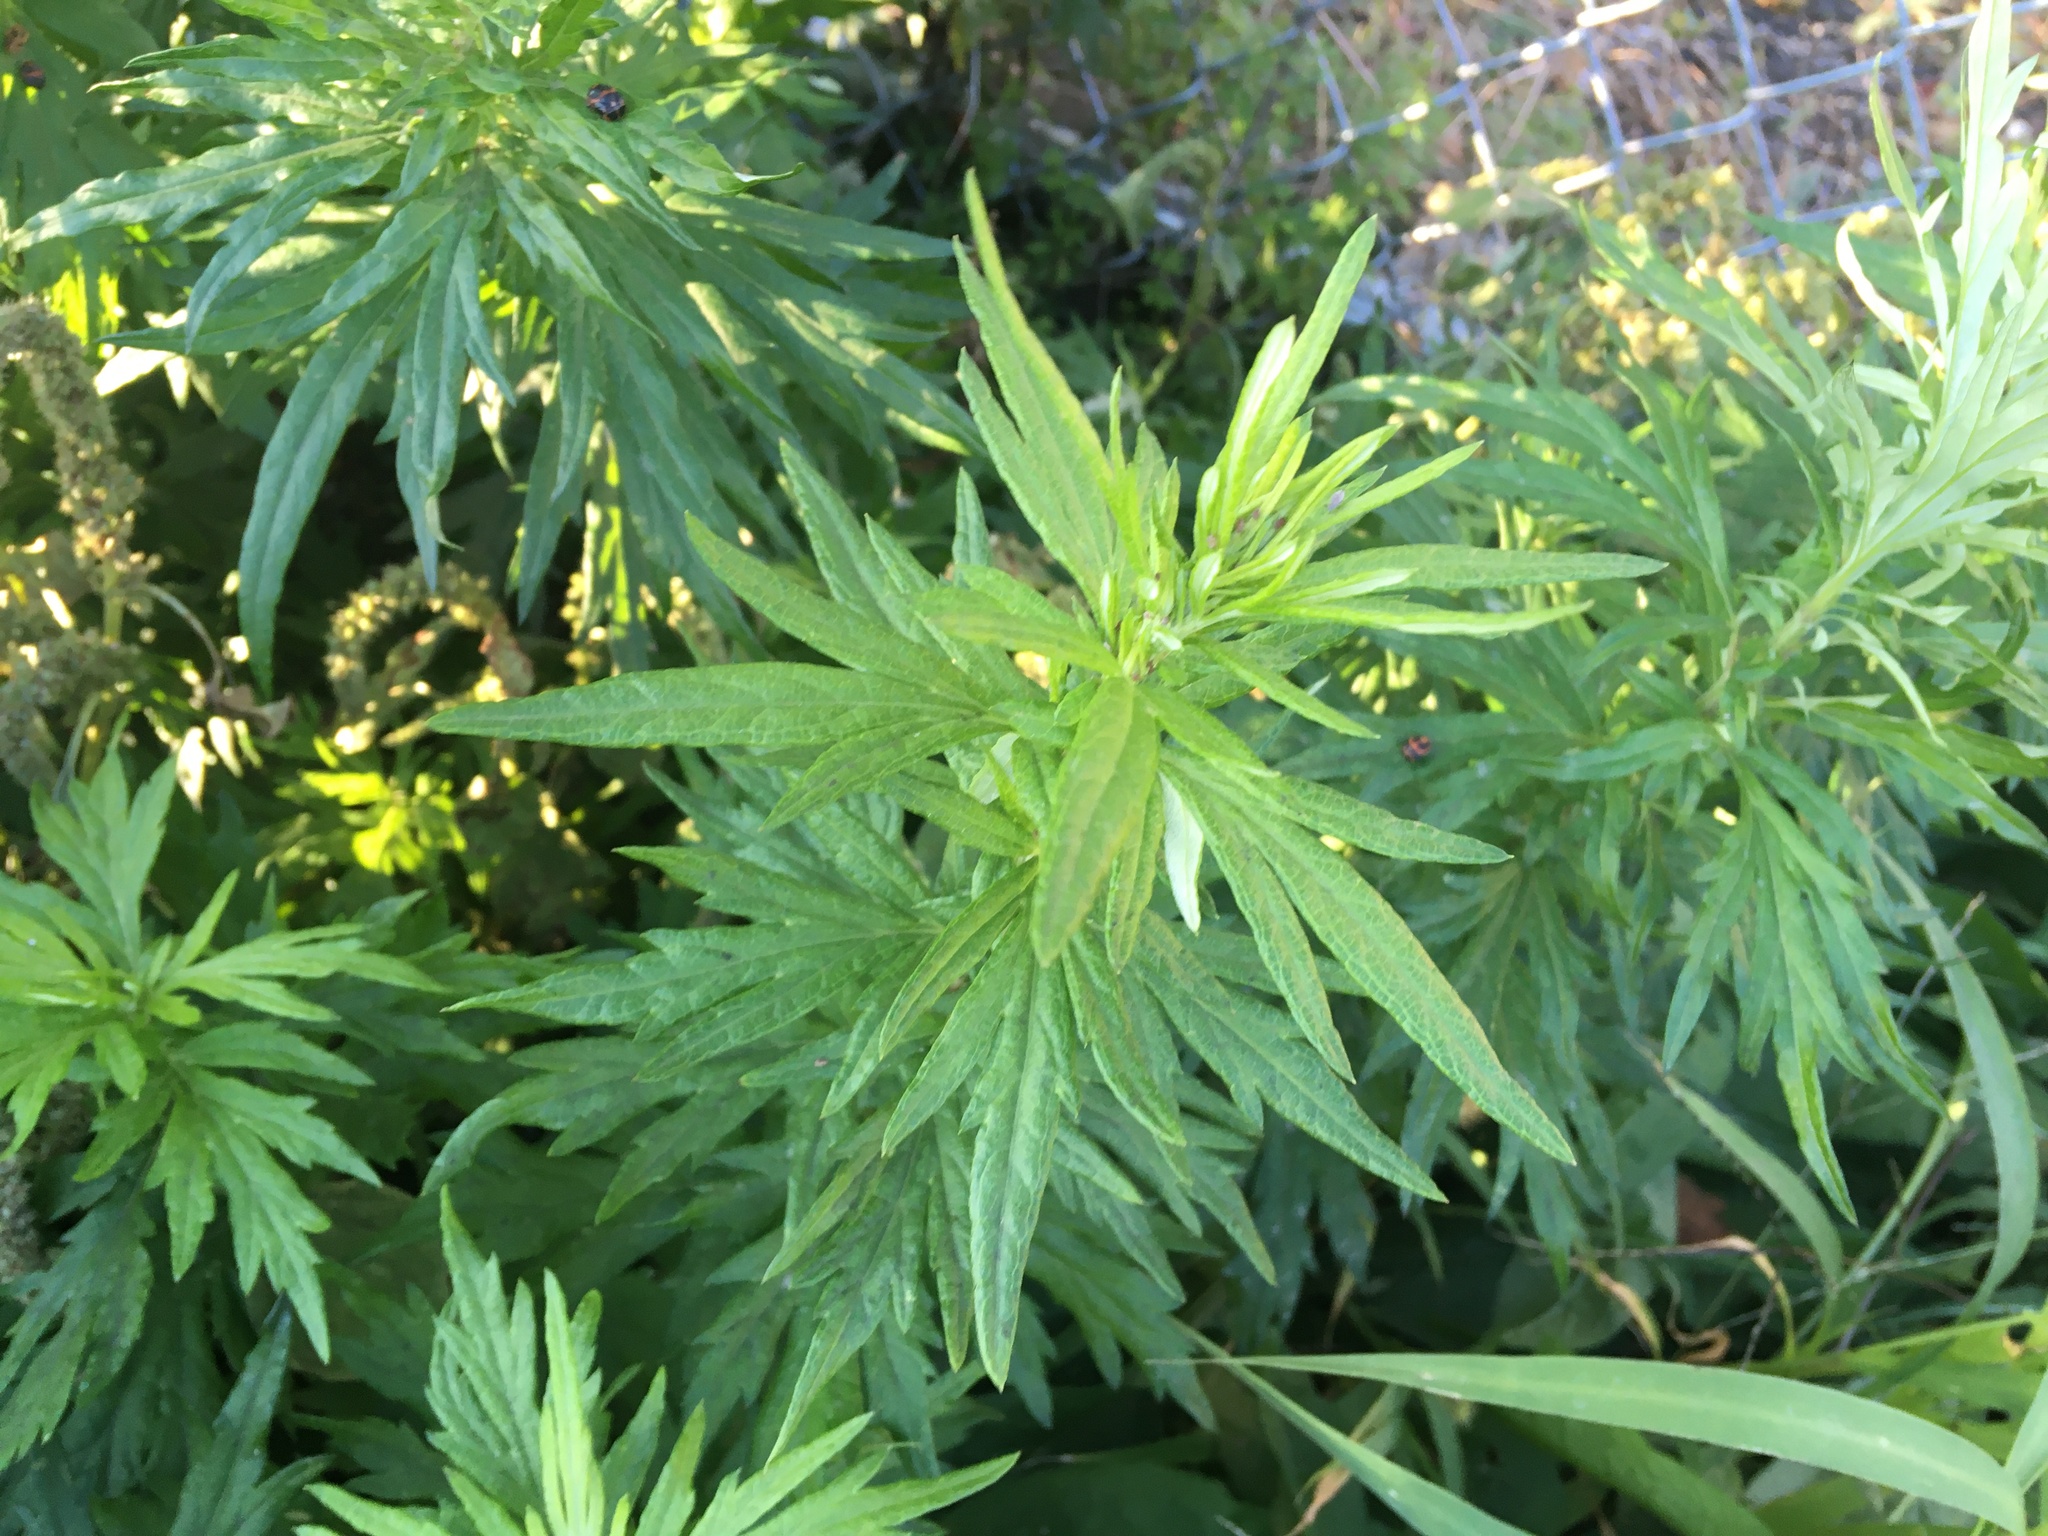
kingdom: Plantae
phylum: Tracheophyta
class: Magnoliopsida
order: Asterales
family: Asteraceae
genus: Artemisia
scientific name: Artemisia vulgaris
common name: Mugwort
